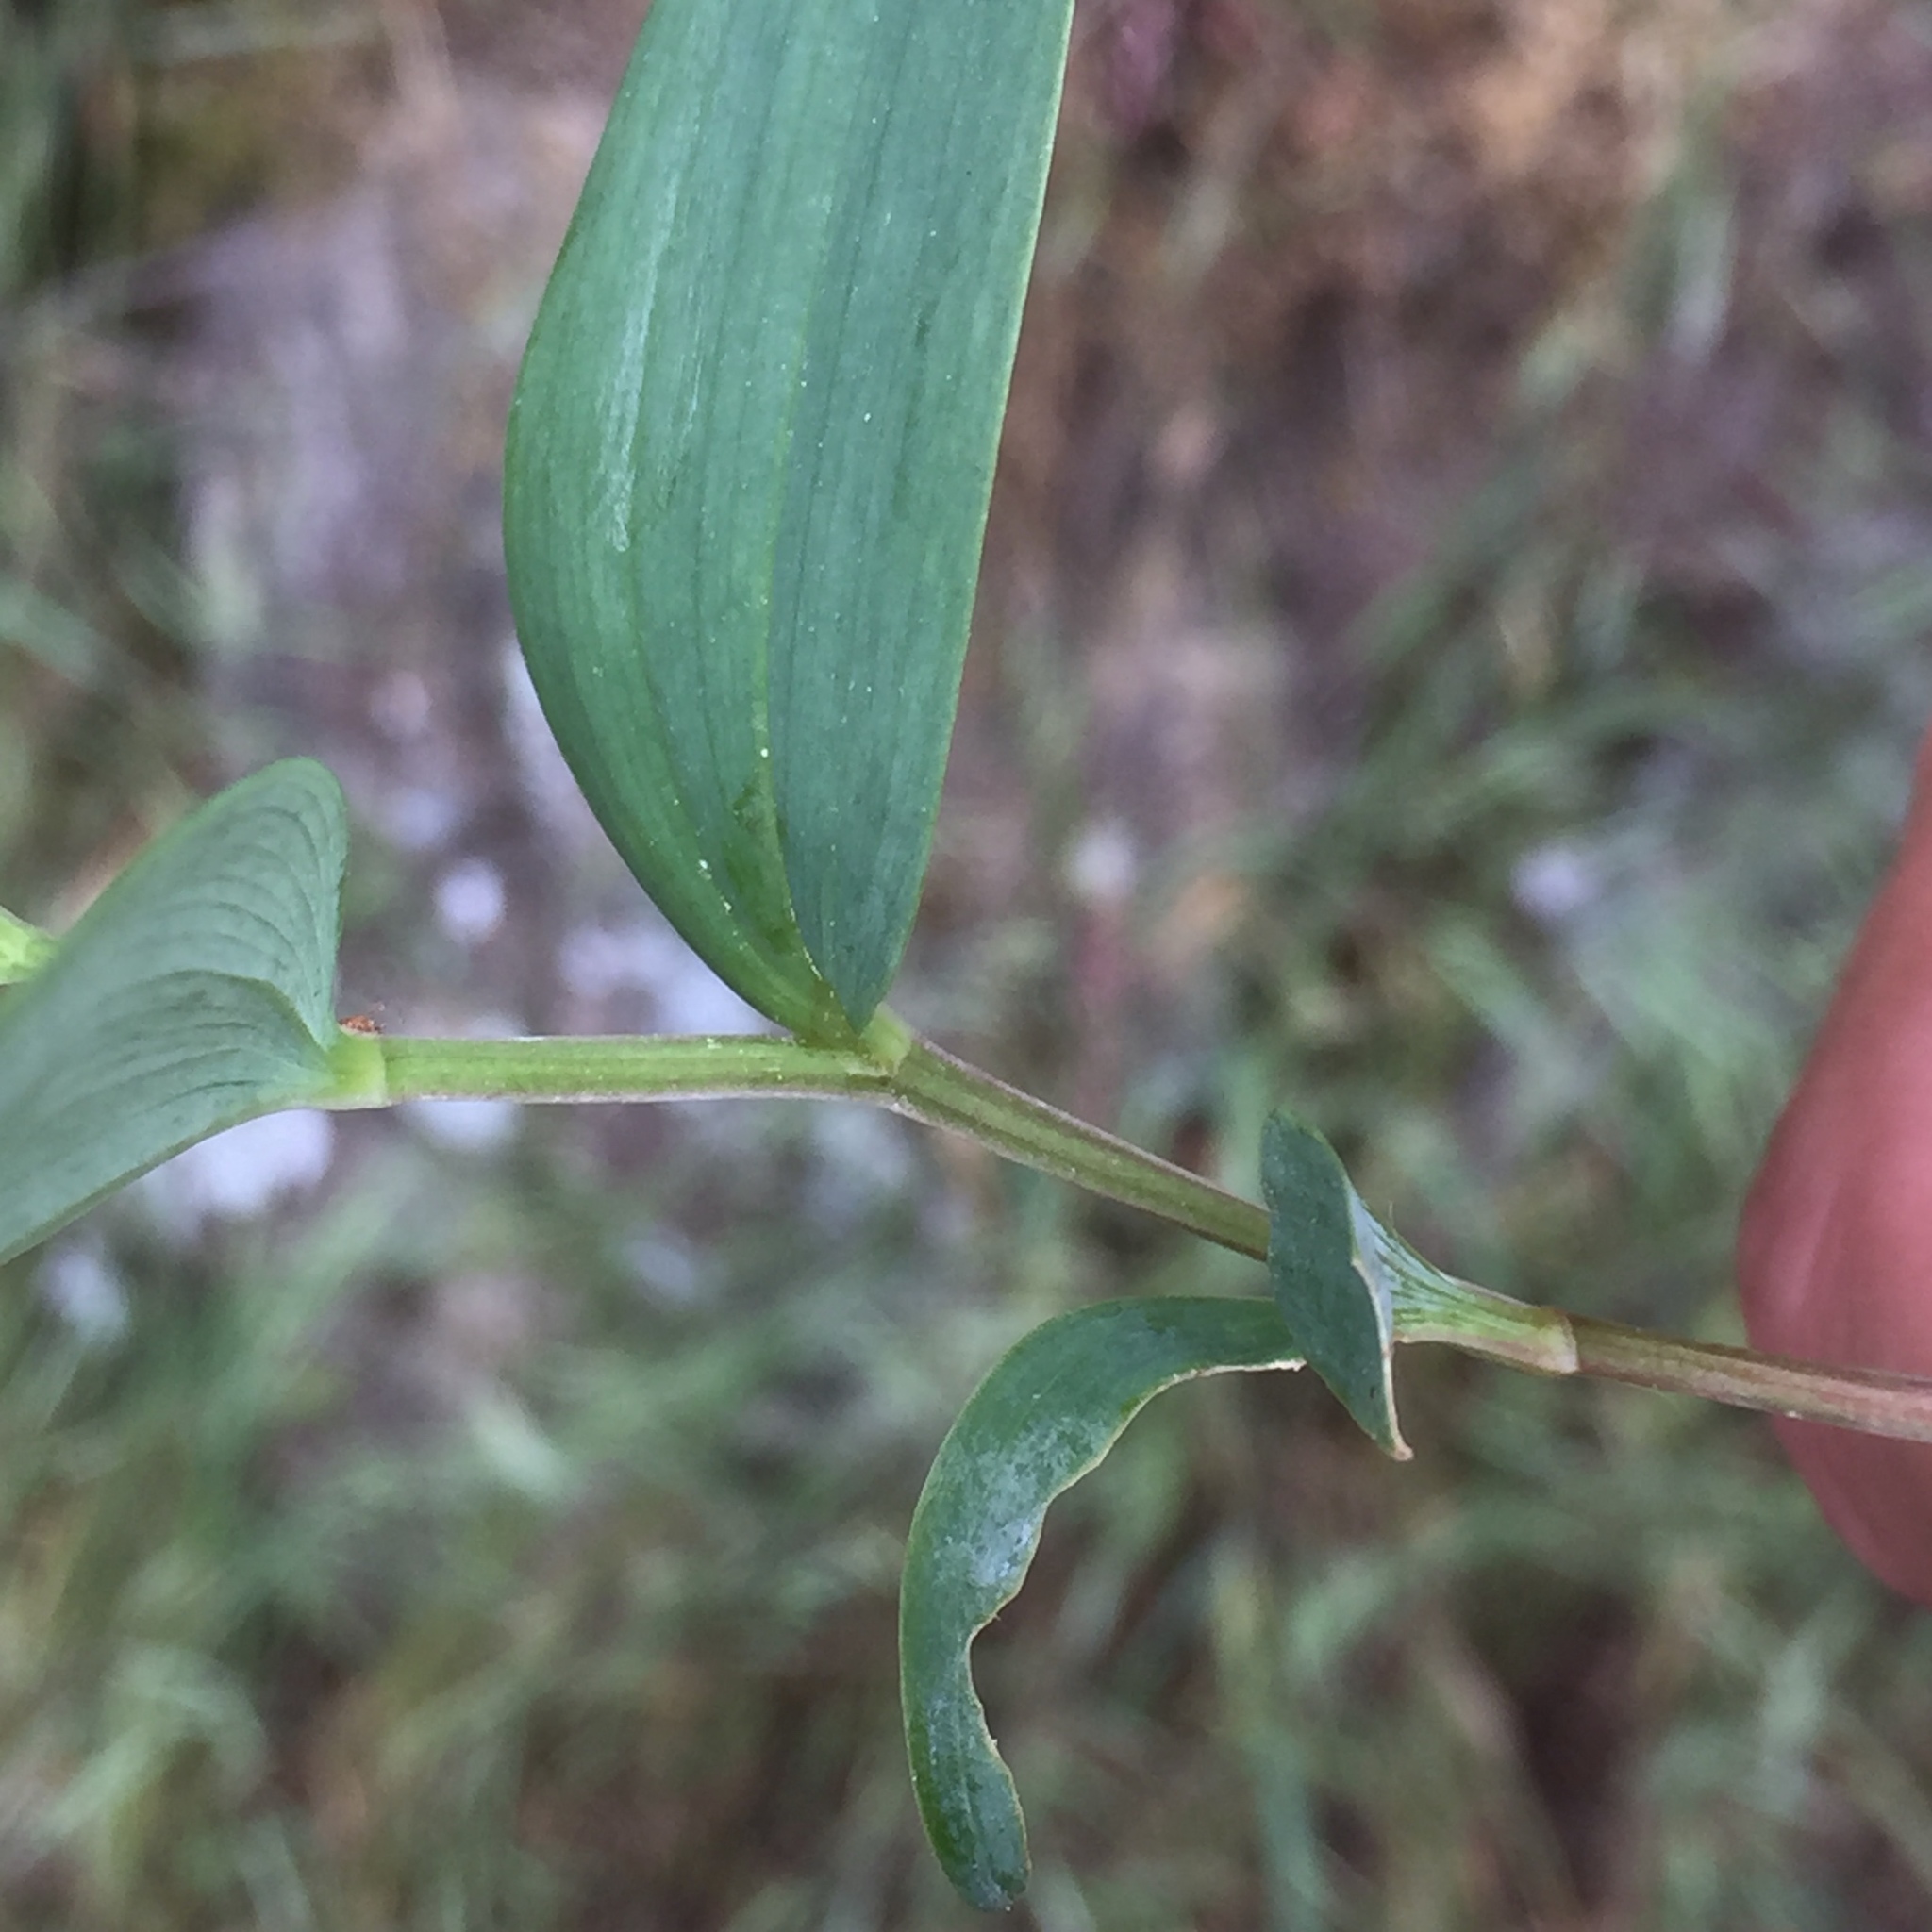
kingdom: Plantae
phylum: Tracheophyta
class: Liliopsida
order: Asparagales
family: Asparagaceae
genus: Polygonatum
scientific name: Polygonatum odoratum
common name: Angular solomon's-seal
